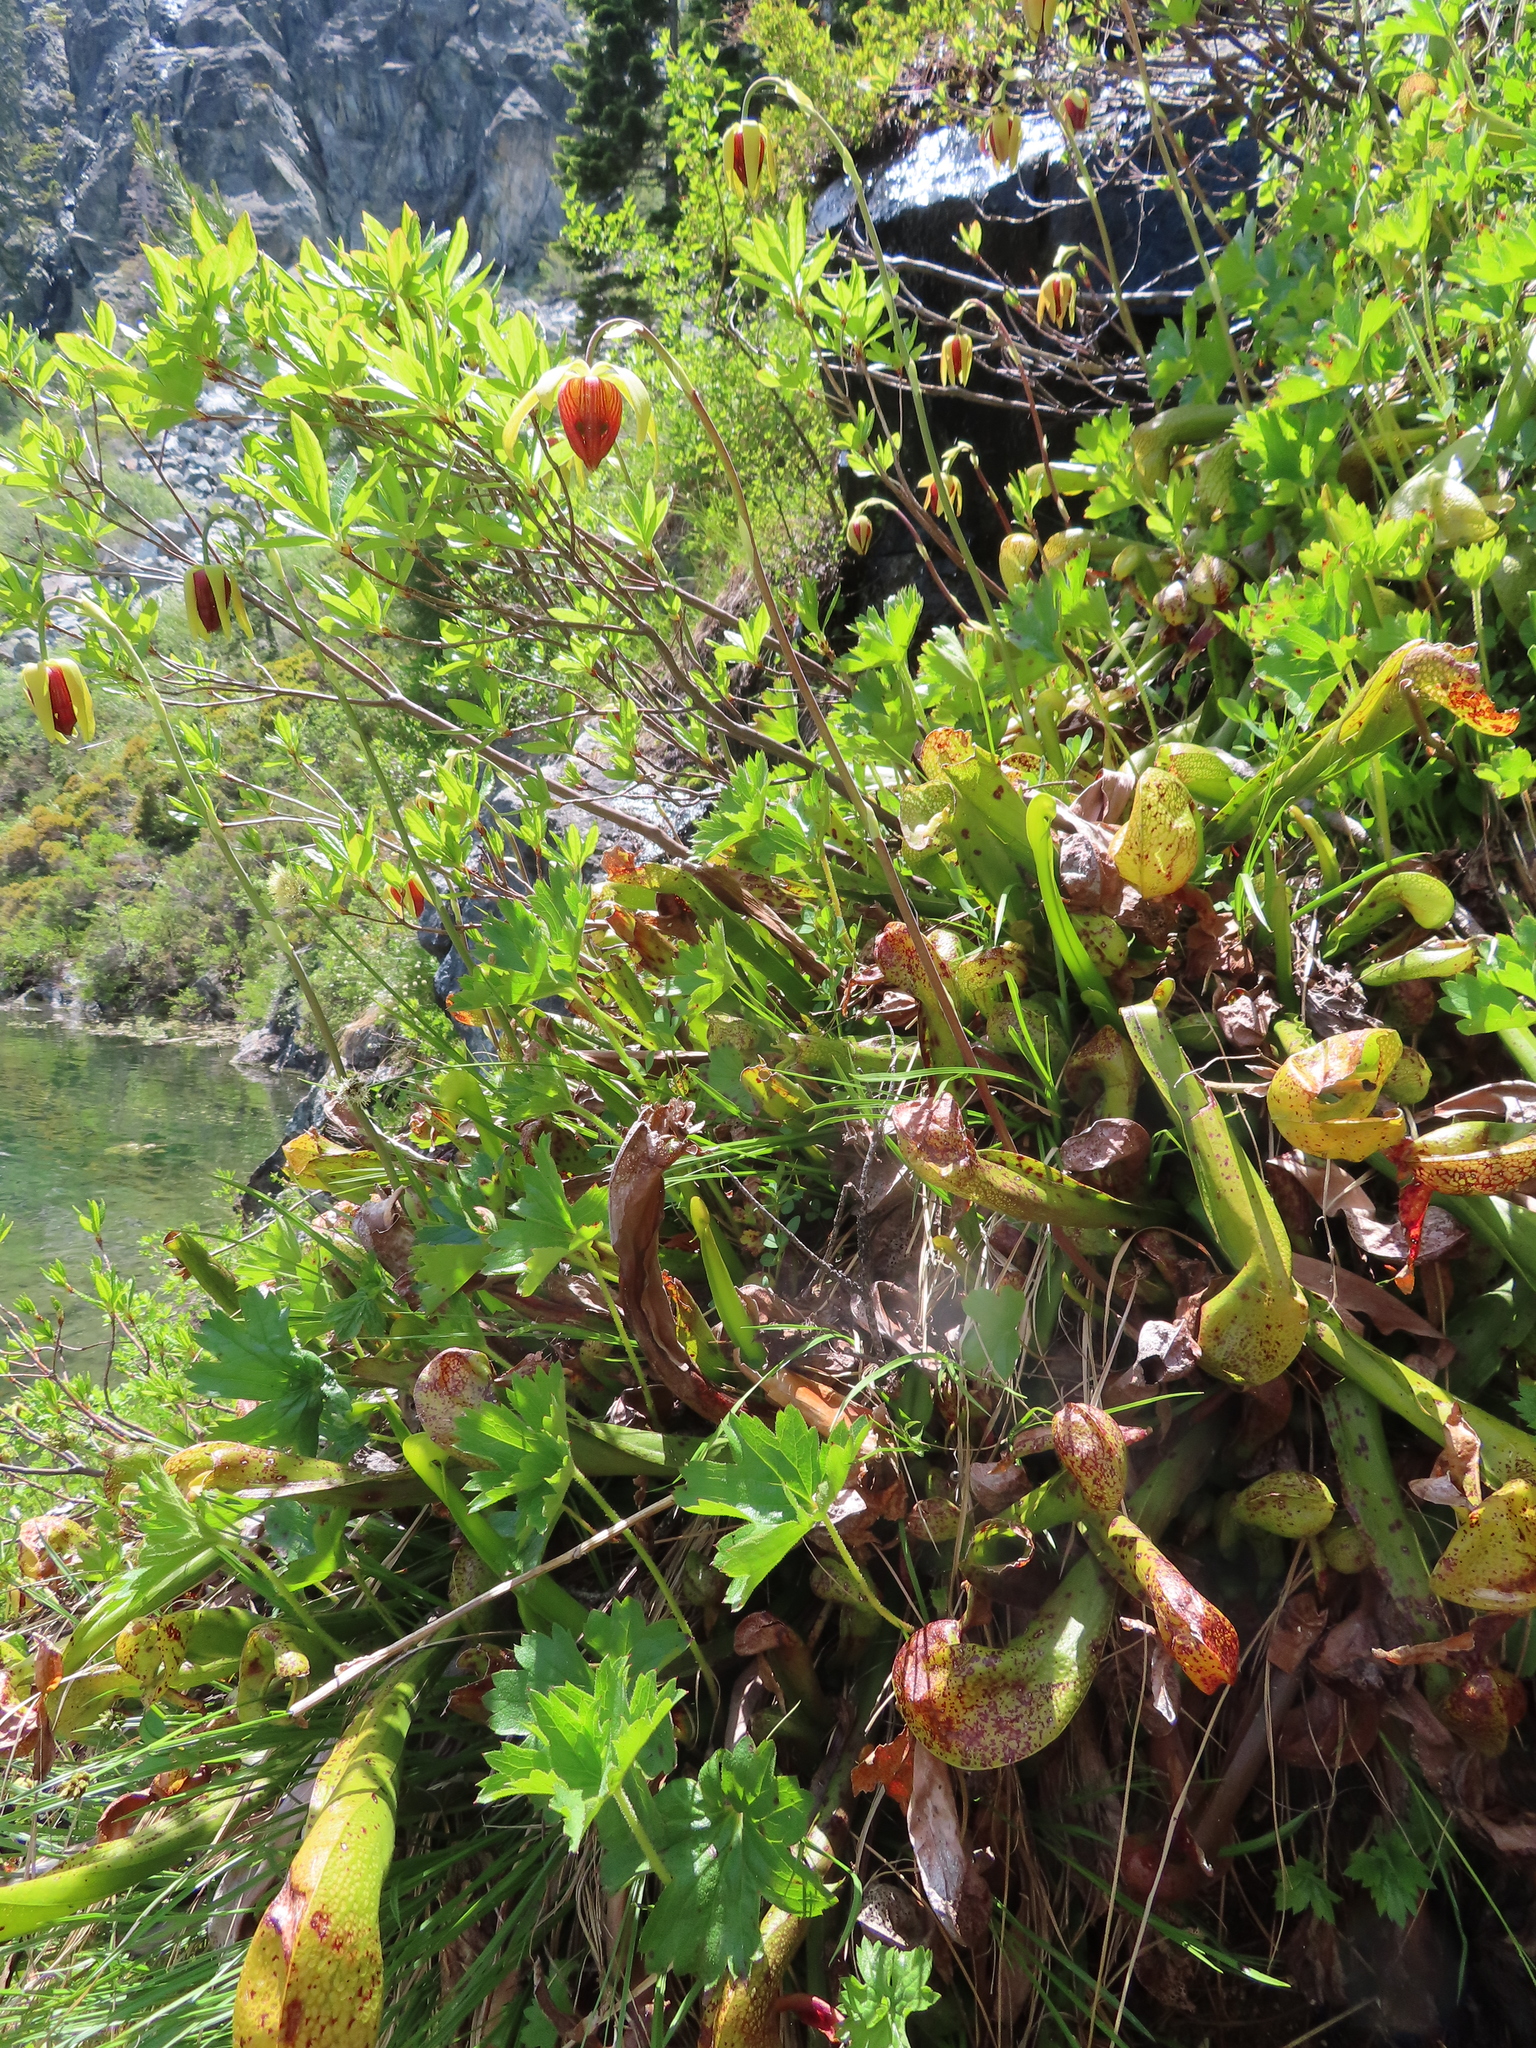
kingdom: Plantae
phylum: Tracheophyta
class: Magnoliopsida
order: Ericales
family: Sarraceniaceae
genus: Darlingtonia
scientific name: Darlingtonia californica
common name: California pitcher plant
